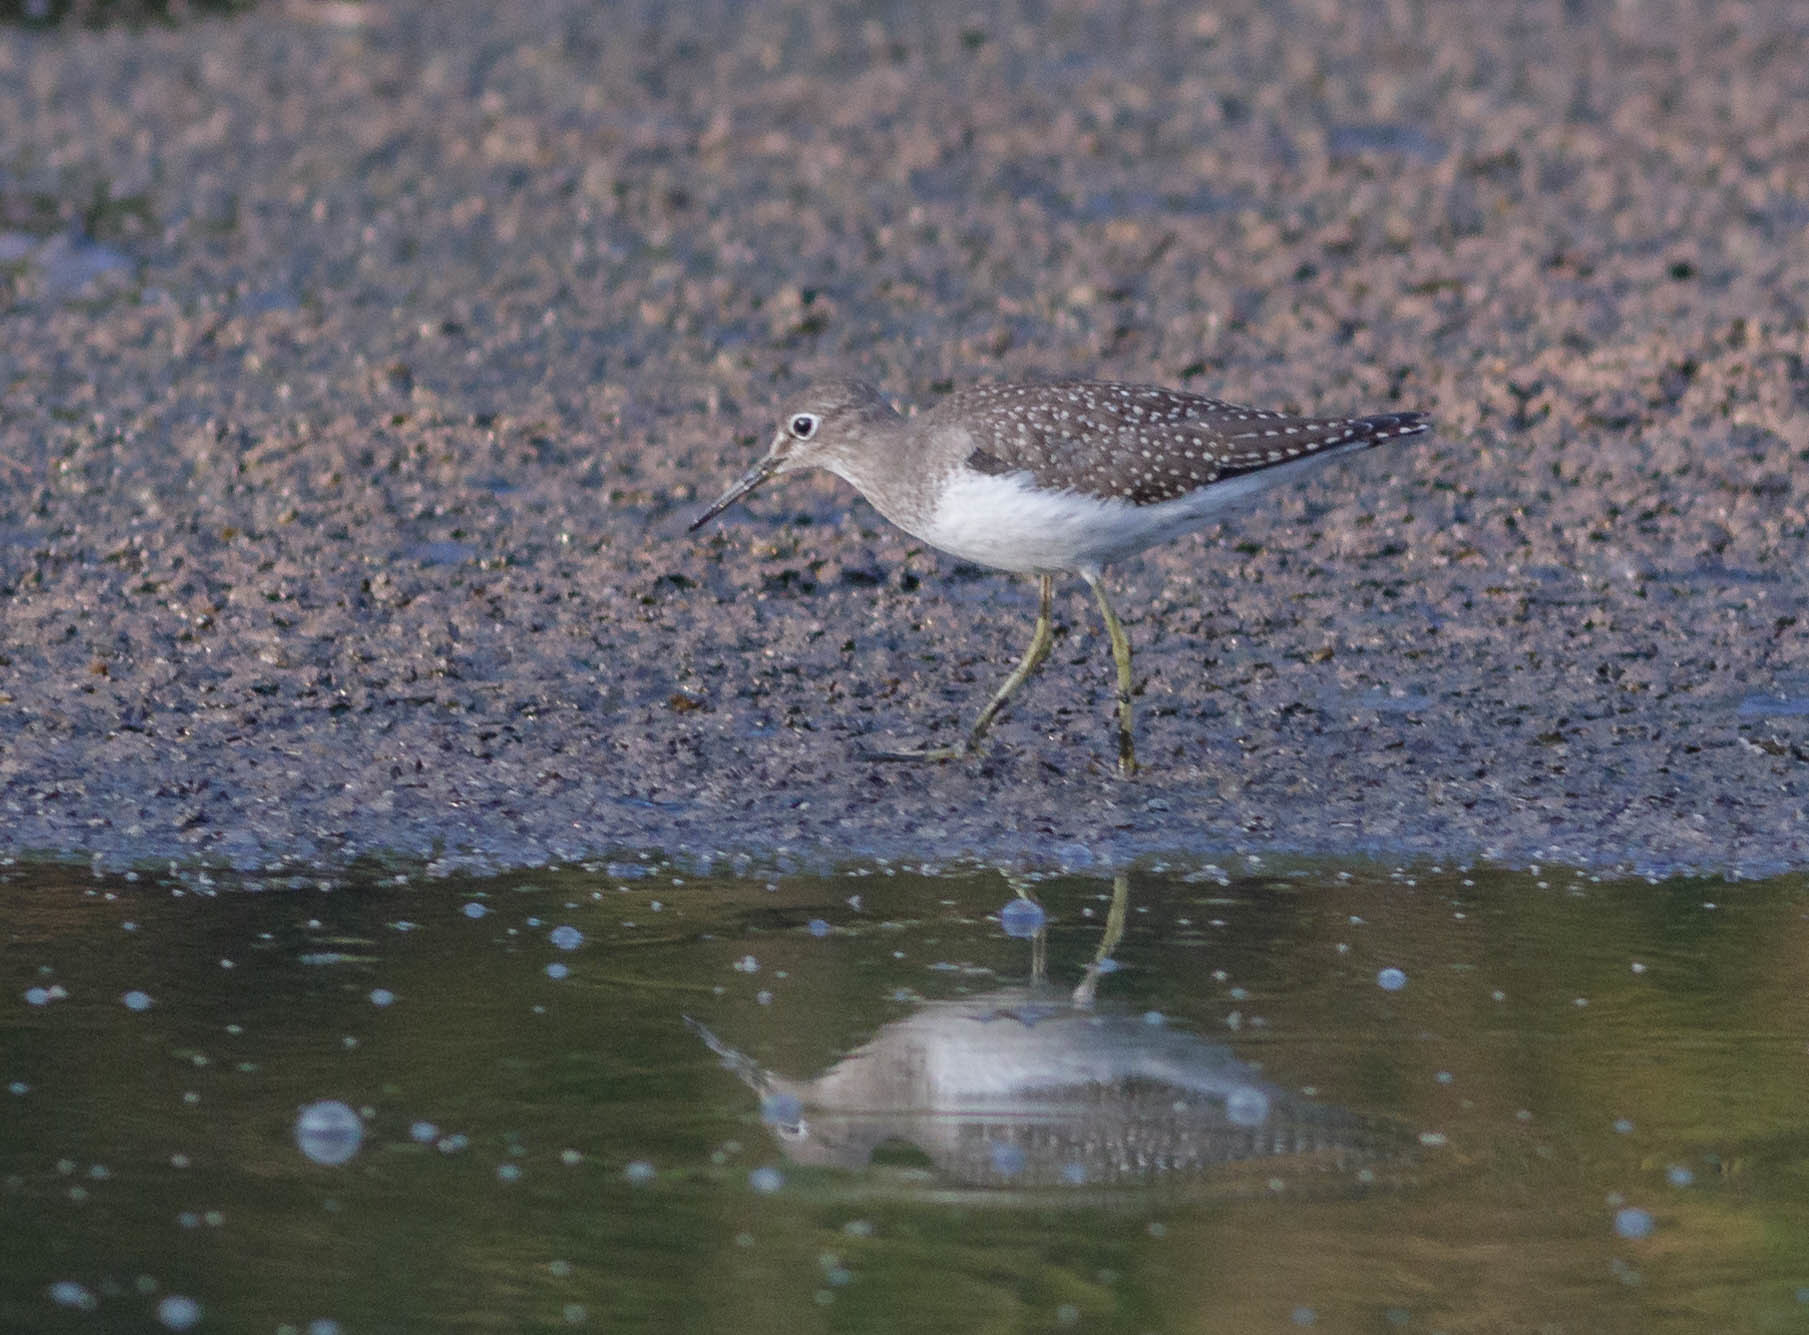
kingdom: Animalia
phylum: Chordata
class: Aves
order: Charadriiformes
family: Scolopacidae
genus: Tringa
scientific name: Tringa solitaria
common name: Solitary sandpiper
